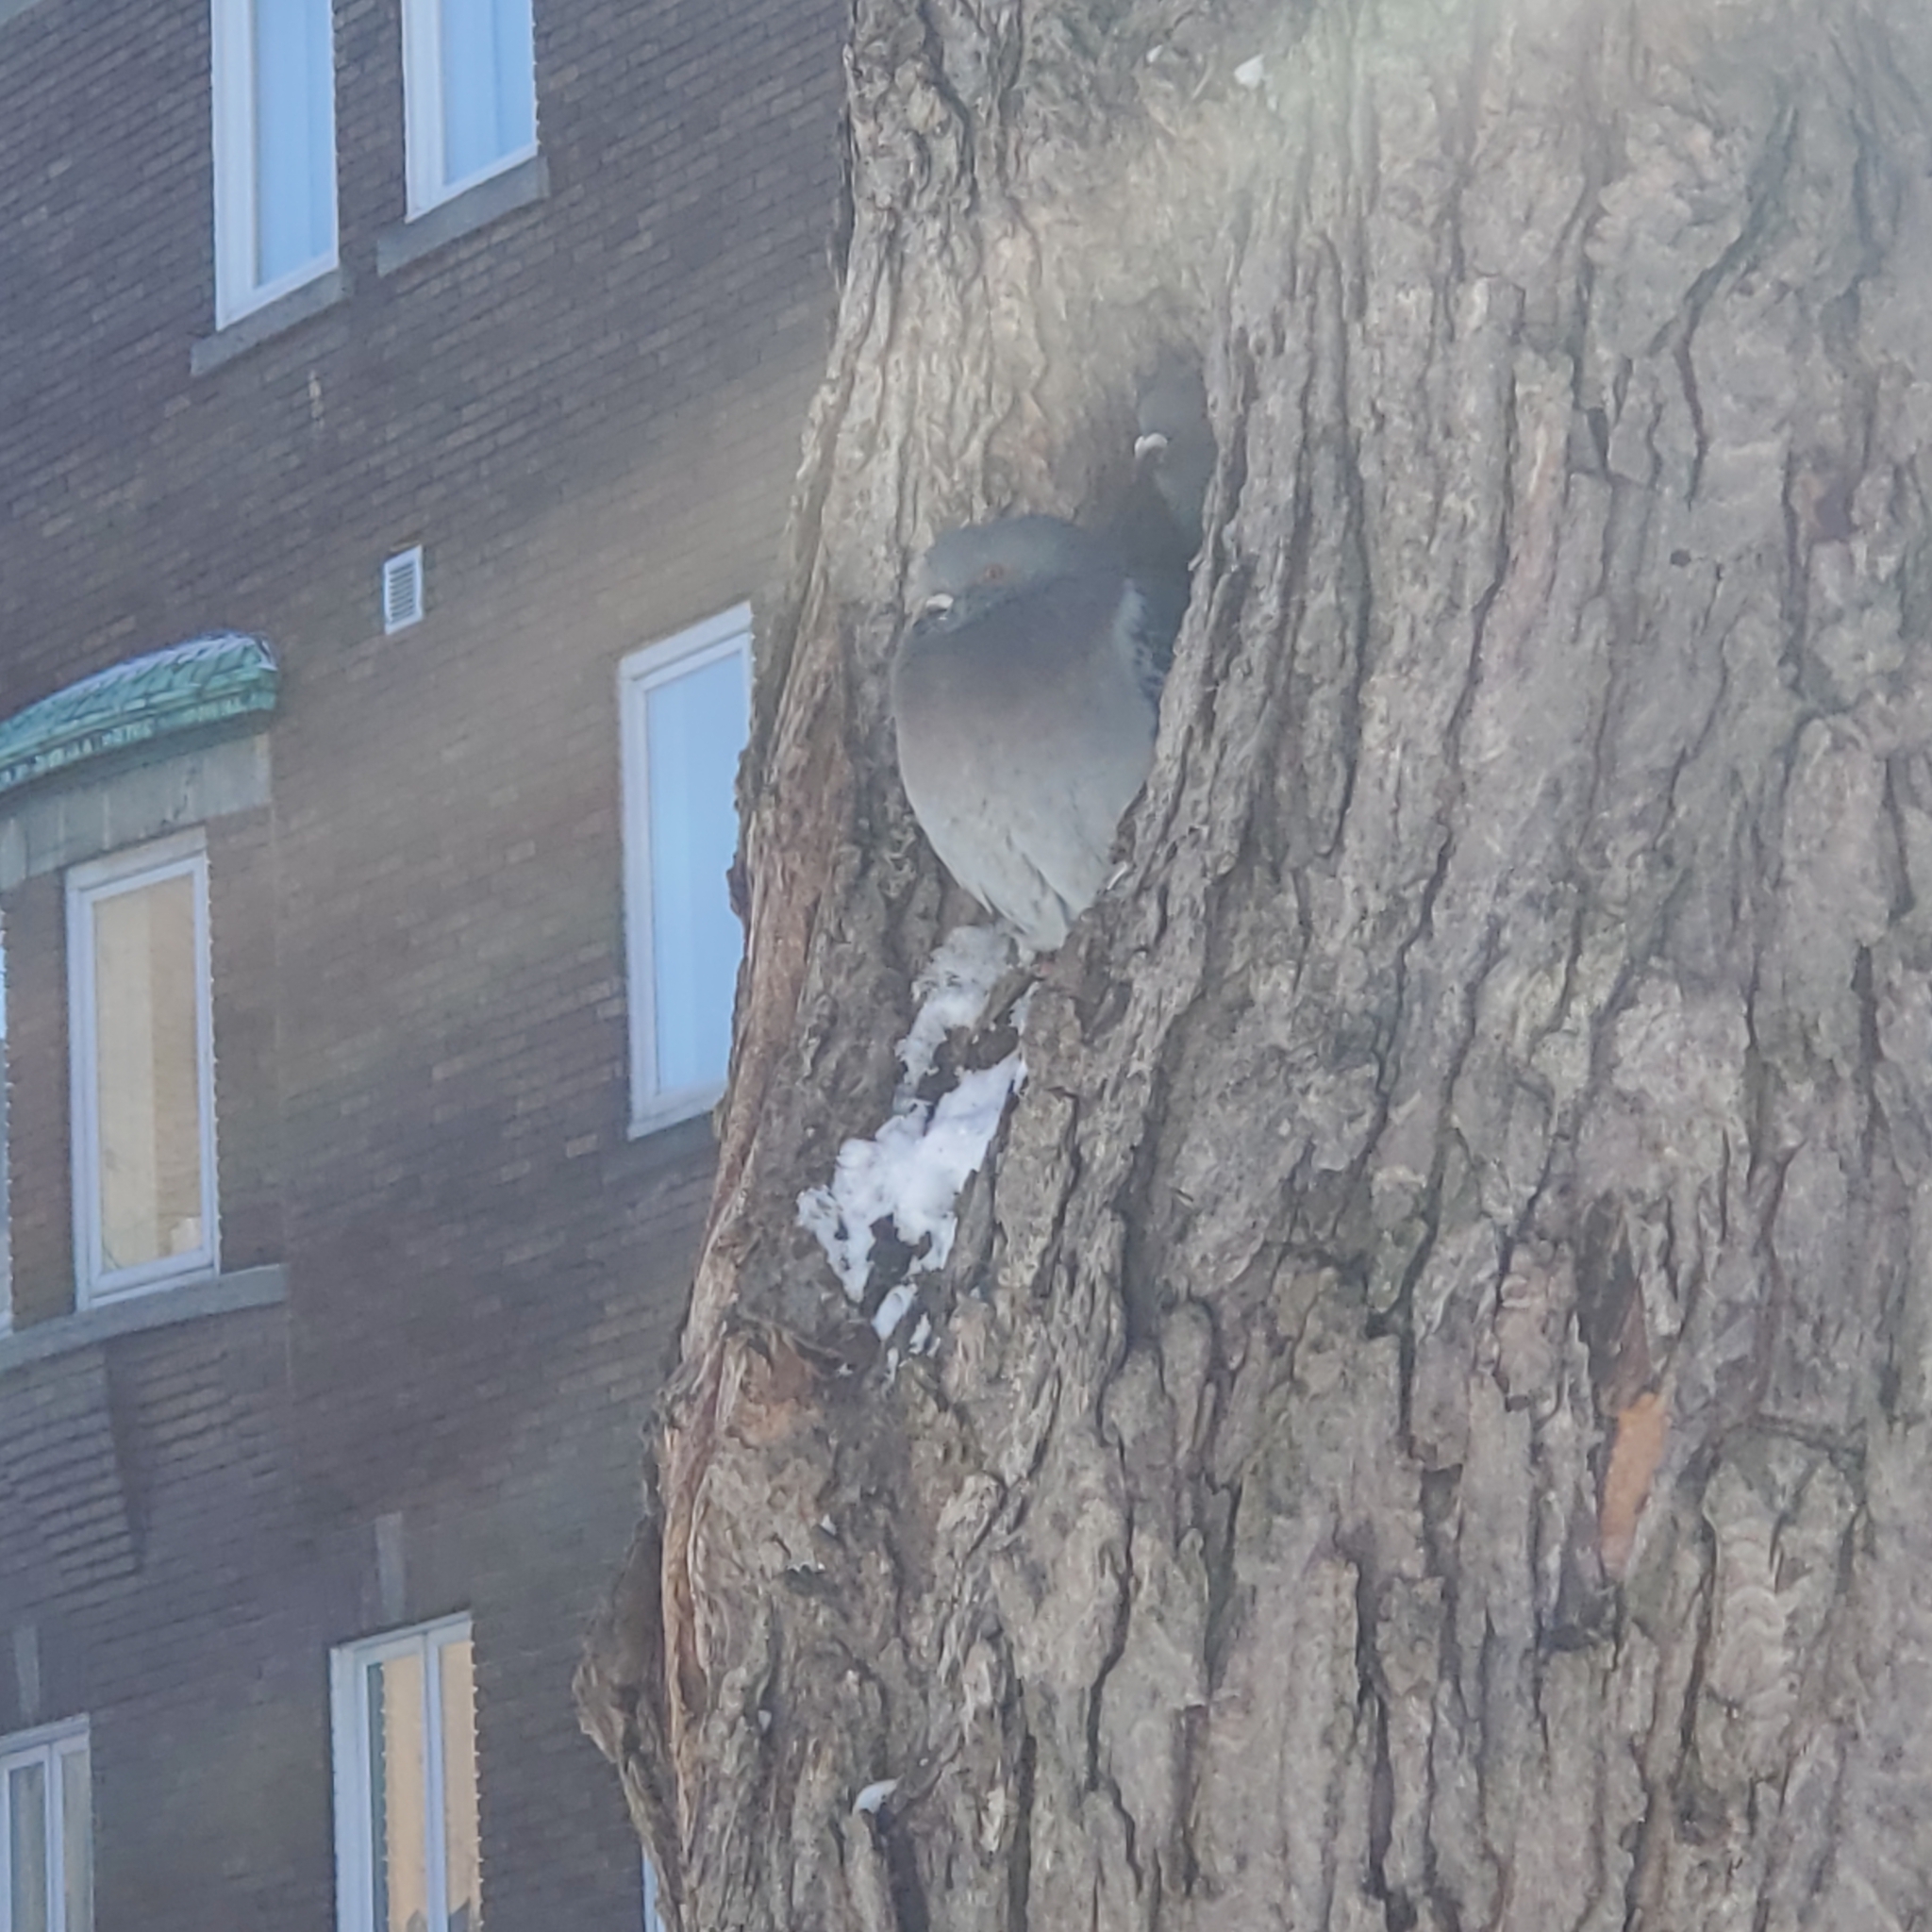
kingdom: Animalia
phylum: Chordata
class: Aves
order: Columbiformes
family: Columbidae
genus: Columba
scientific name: Columba livia
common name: Rock pigeon
